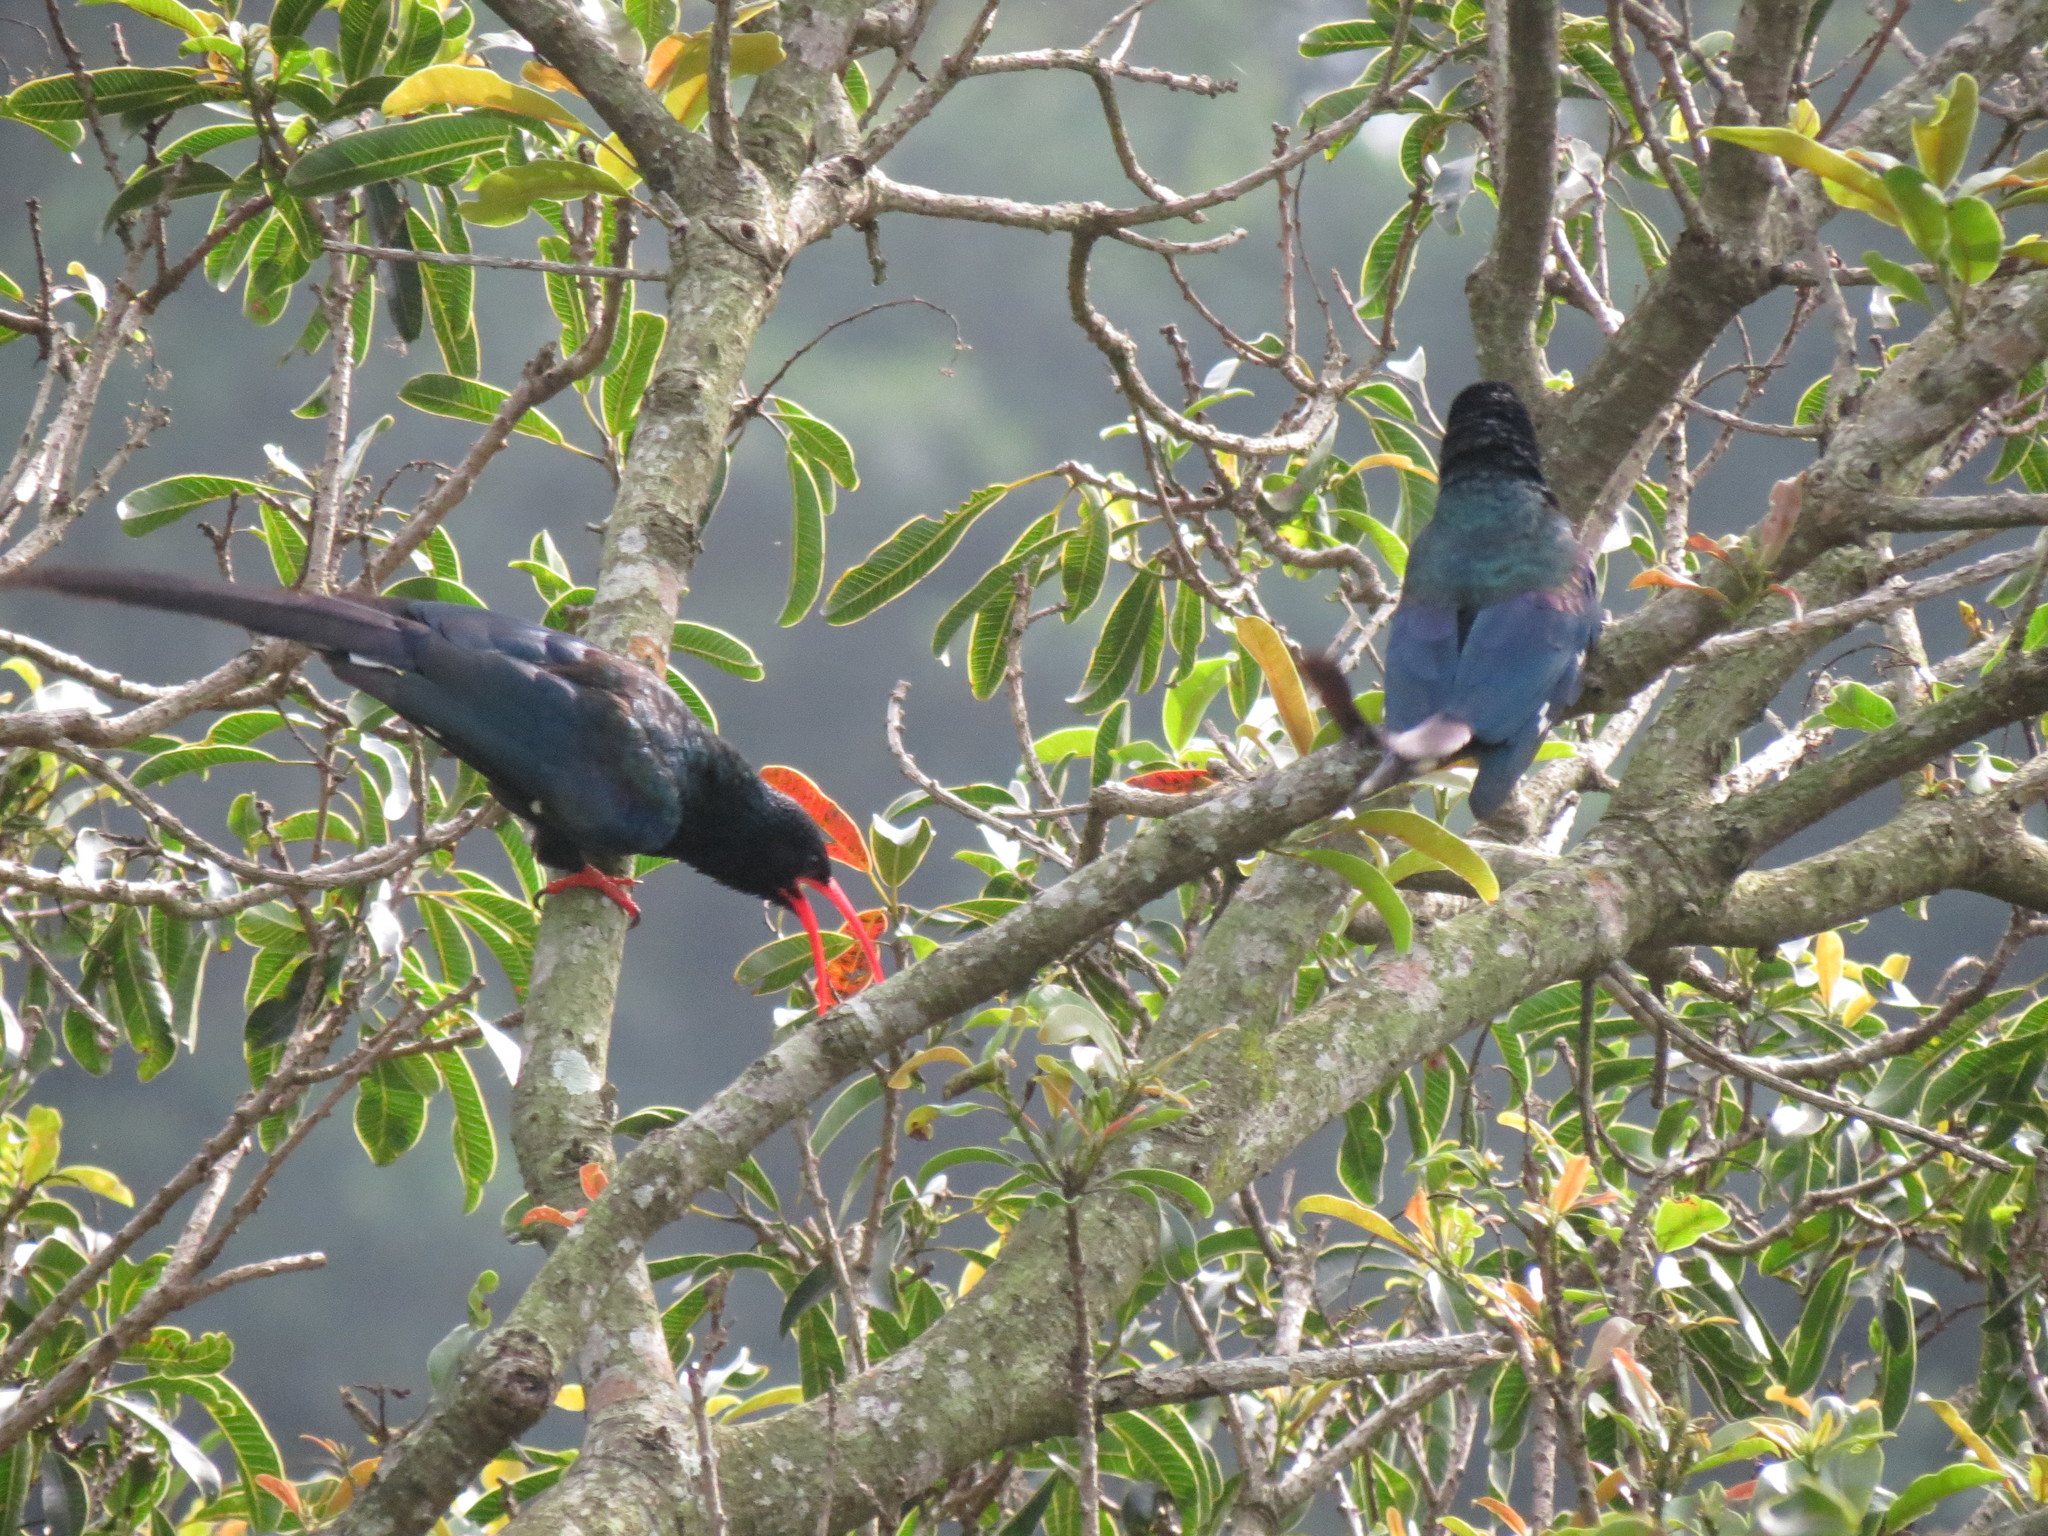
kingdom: Animalia
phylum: Chordata
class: Aves
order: Bucerotiformes
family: Phoeniculidae
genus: Phoeniculus
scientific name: Phoeniculus purpureus
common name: Green woodhoopoe
